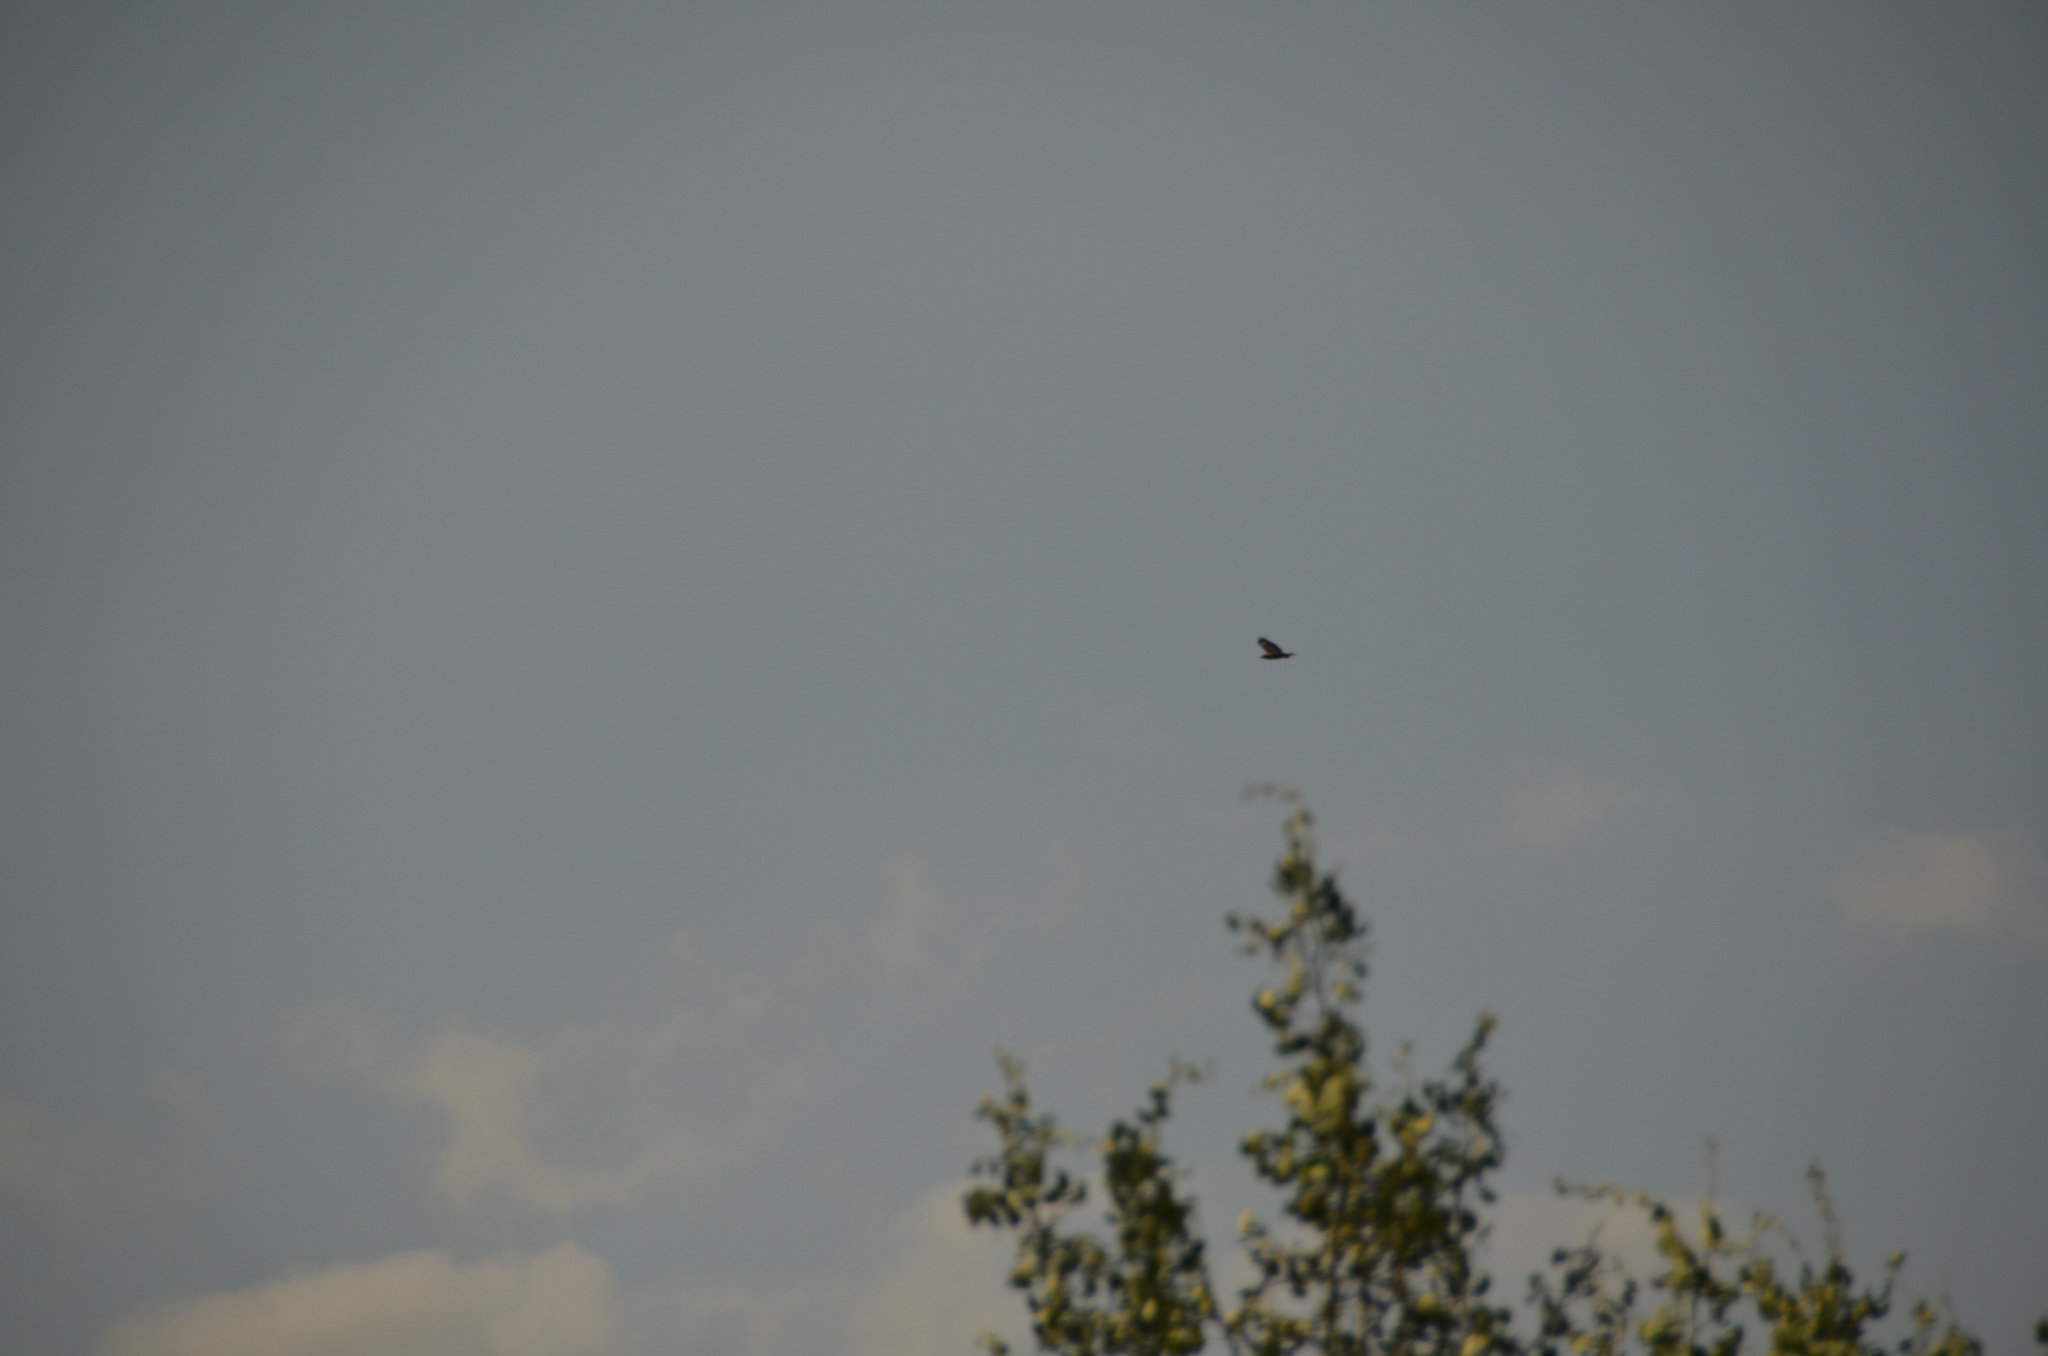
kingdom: Animalia
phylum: Chordata
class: Aves
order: Accipitriformes
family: Accipitridae
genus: Buteo
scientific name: Buteo jamaicensis
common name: Red-tailed hawk
